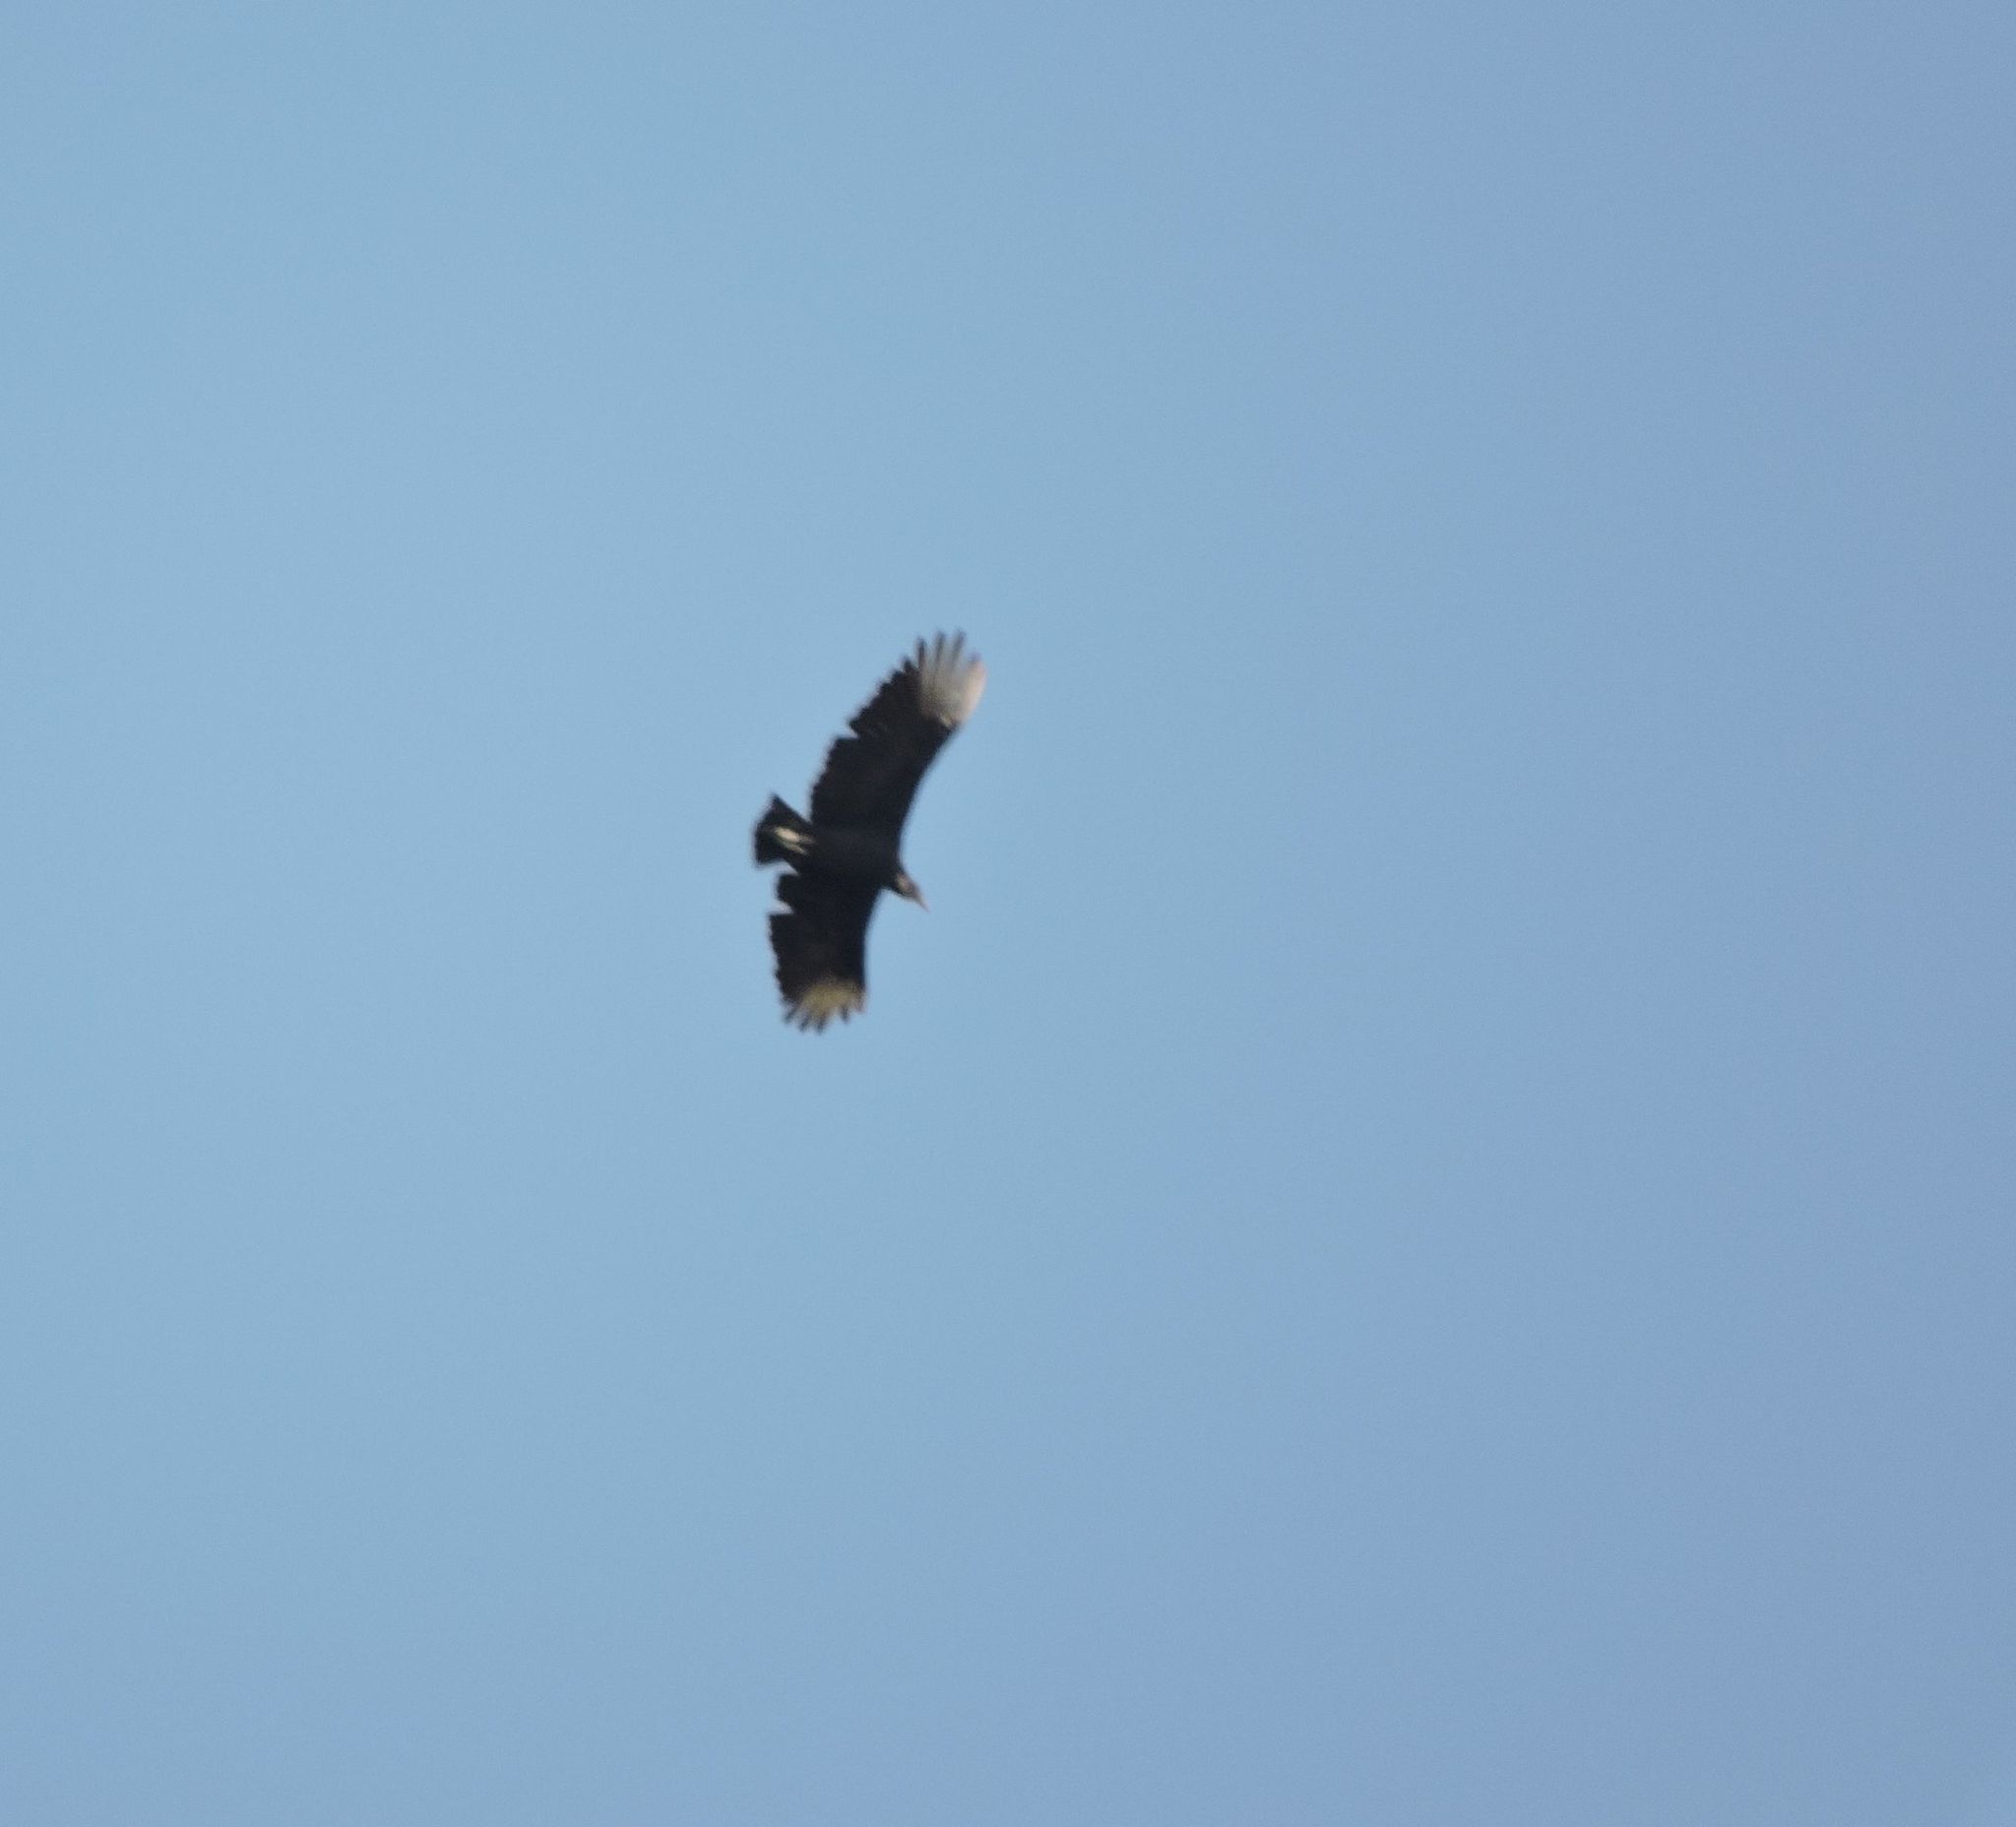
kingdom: Animalia
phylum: Chordata
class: Aves
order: Accipitriformes
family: Cathartidae
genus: Coragyps
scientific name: Coragyps atratus
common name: Black vulture
